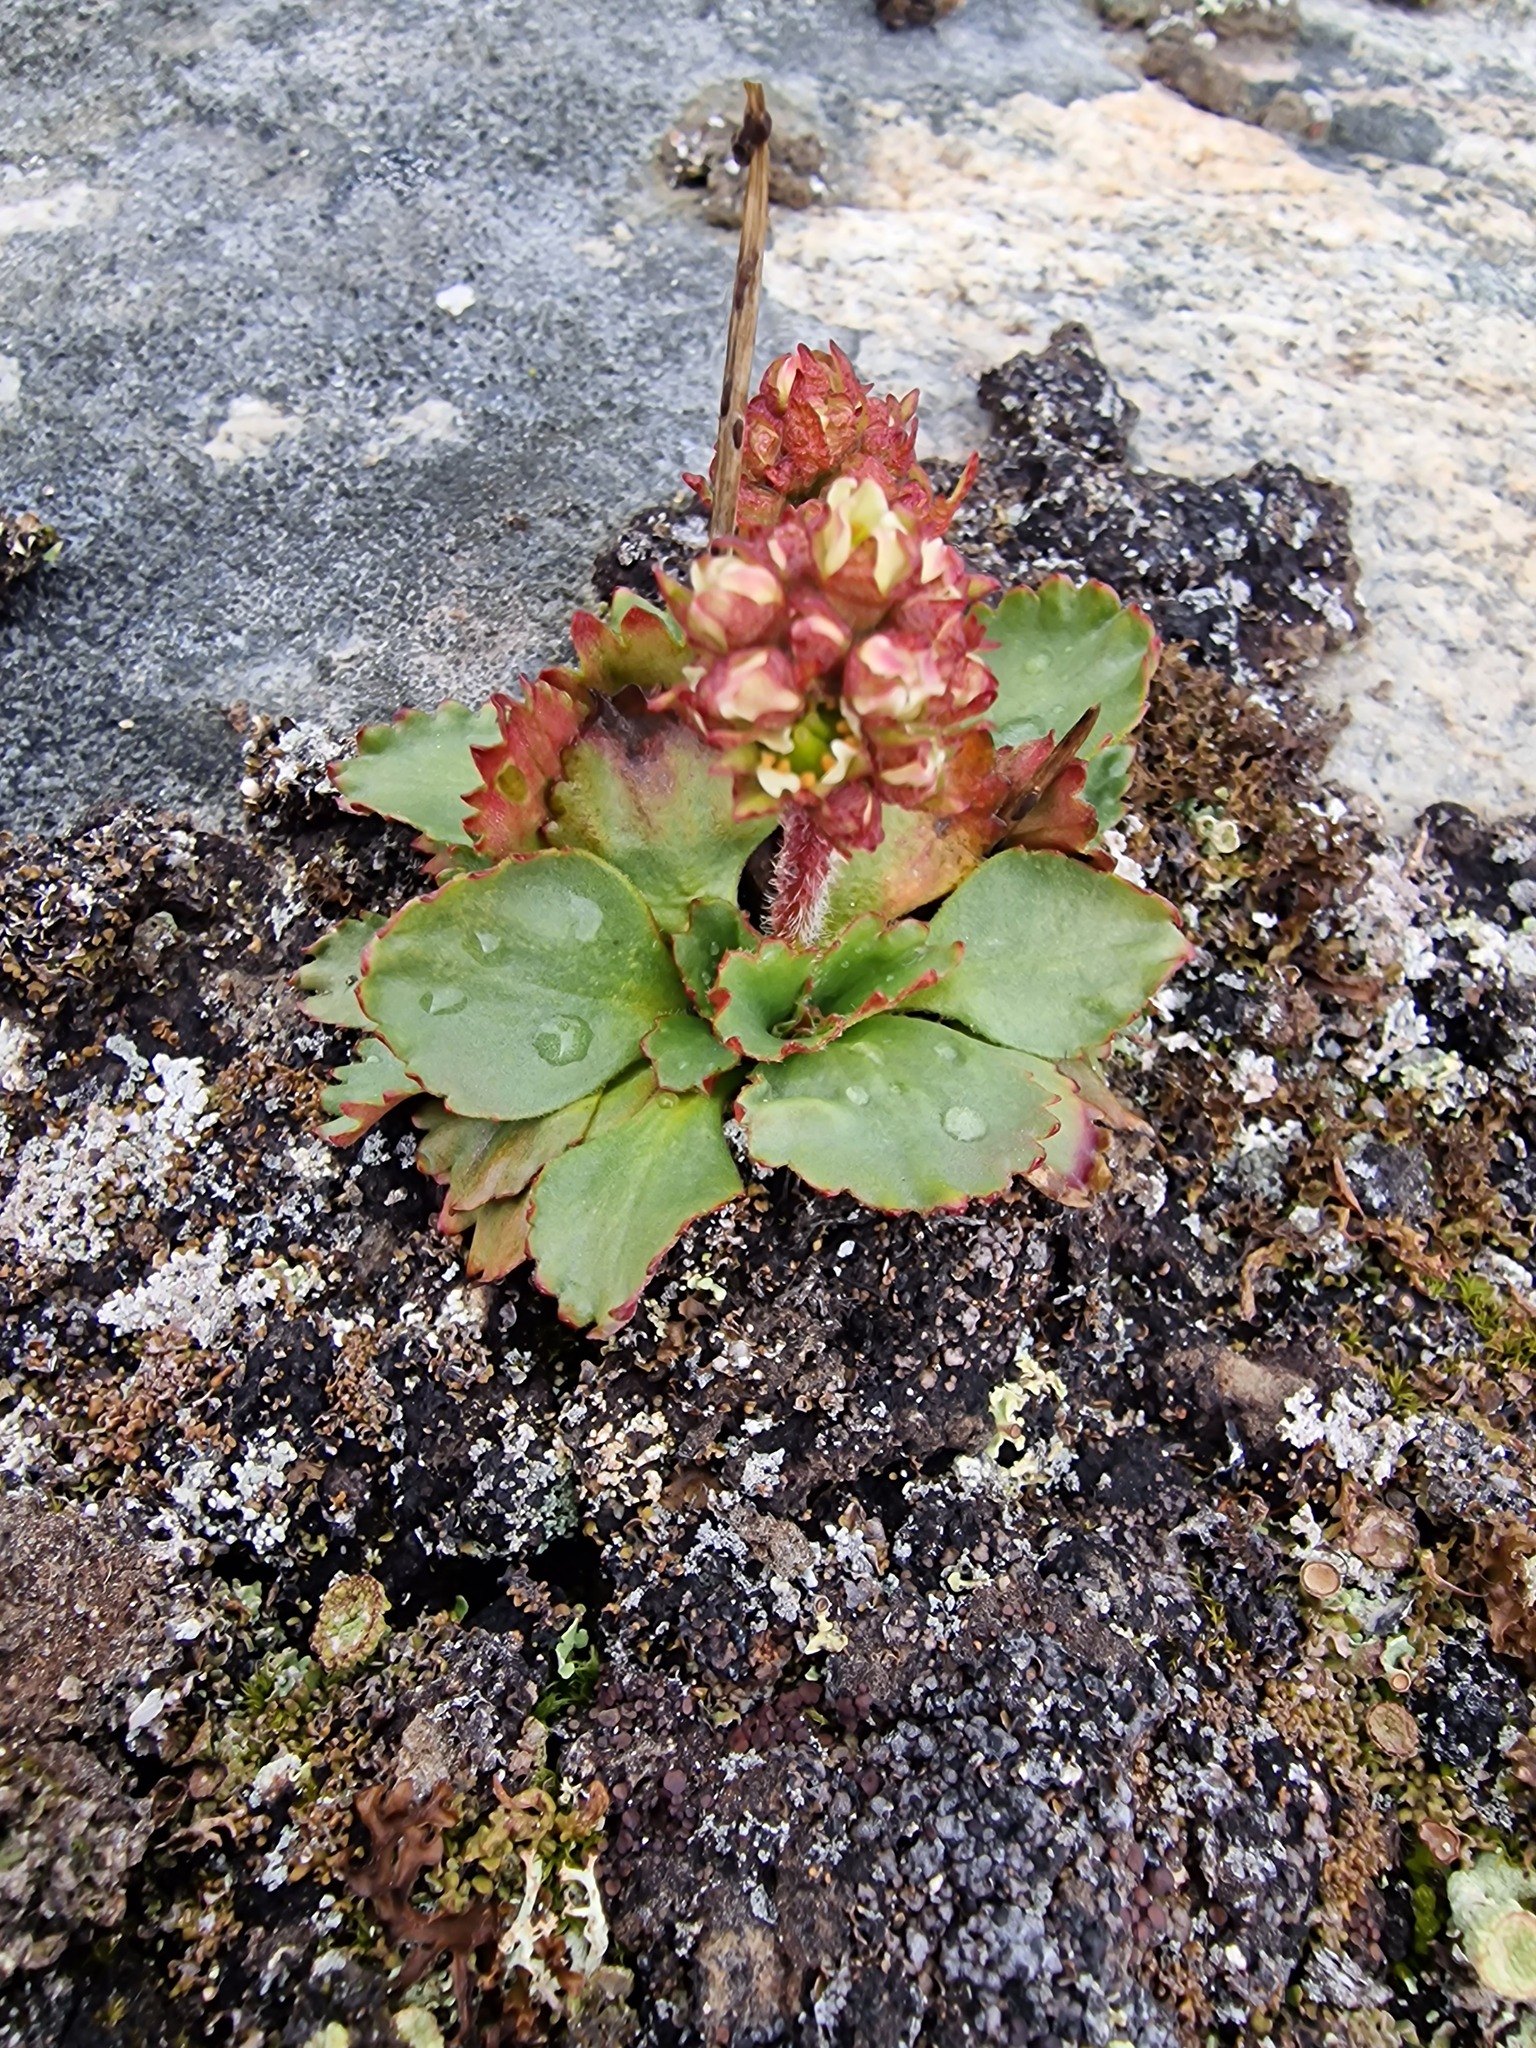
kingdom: Plantae
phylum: Tracheophyta
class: Magnoliopsida
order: Saxifragales
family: Saxifragaceae
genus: Micranthes
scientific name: Micranthes nivalis
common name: Alpine saxifrage
